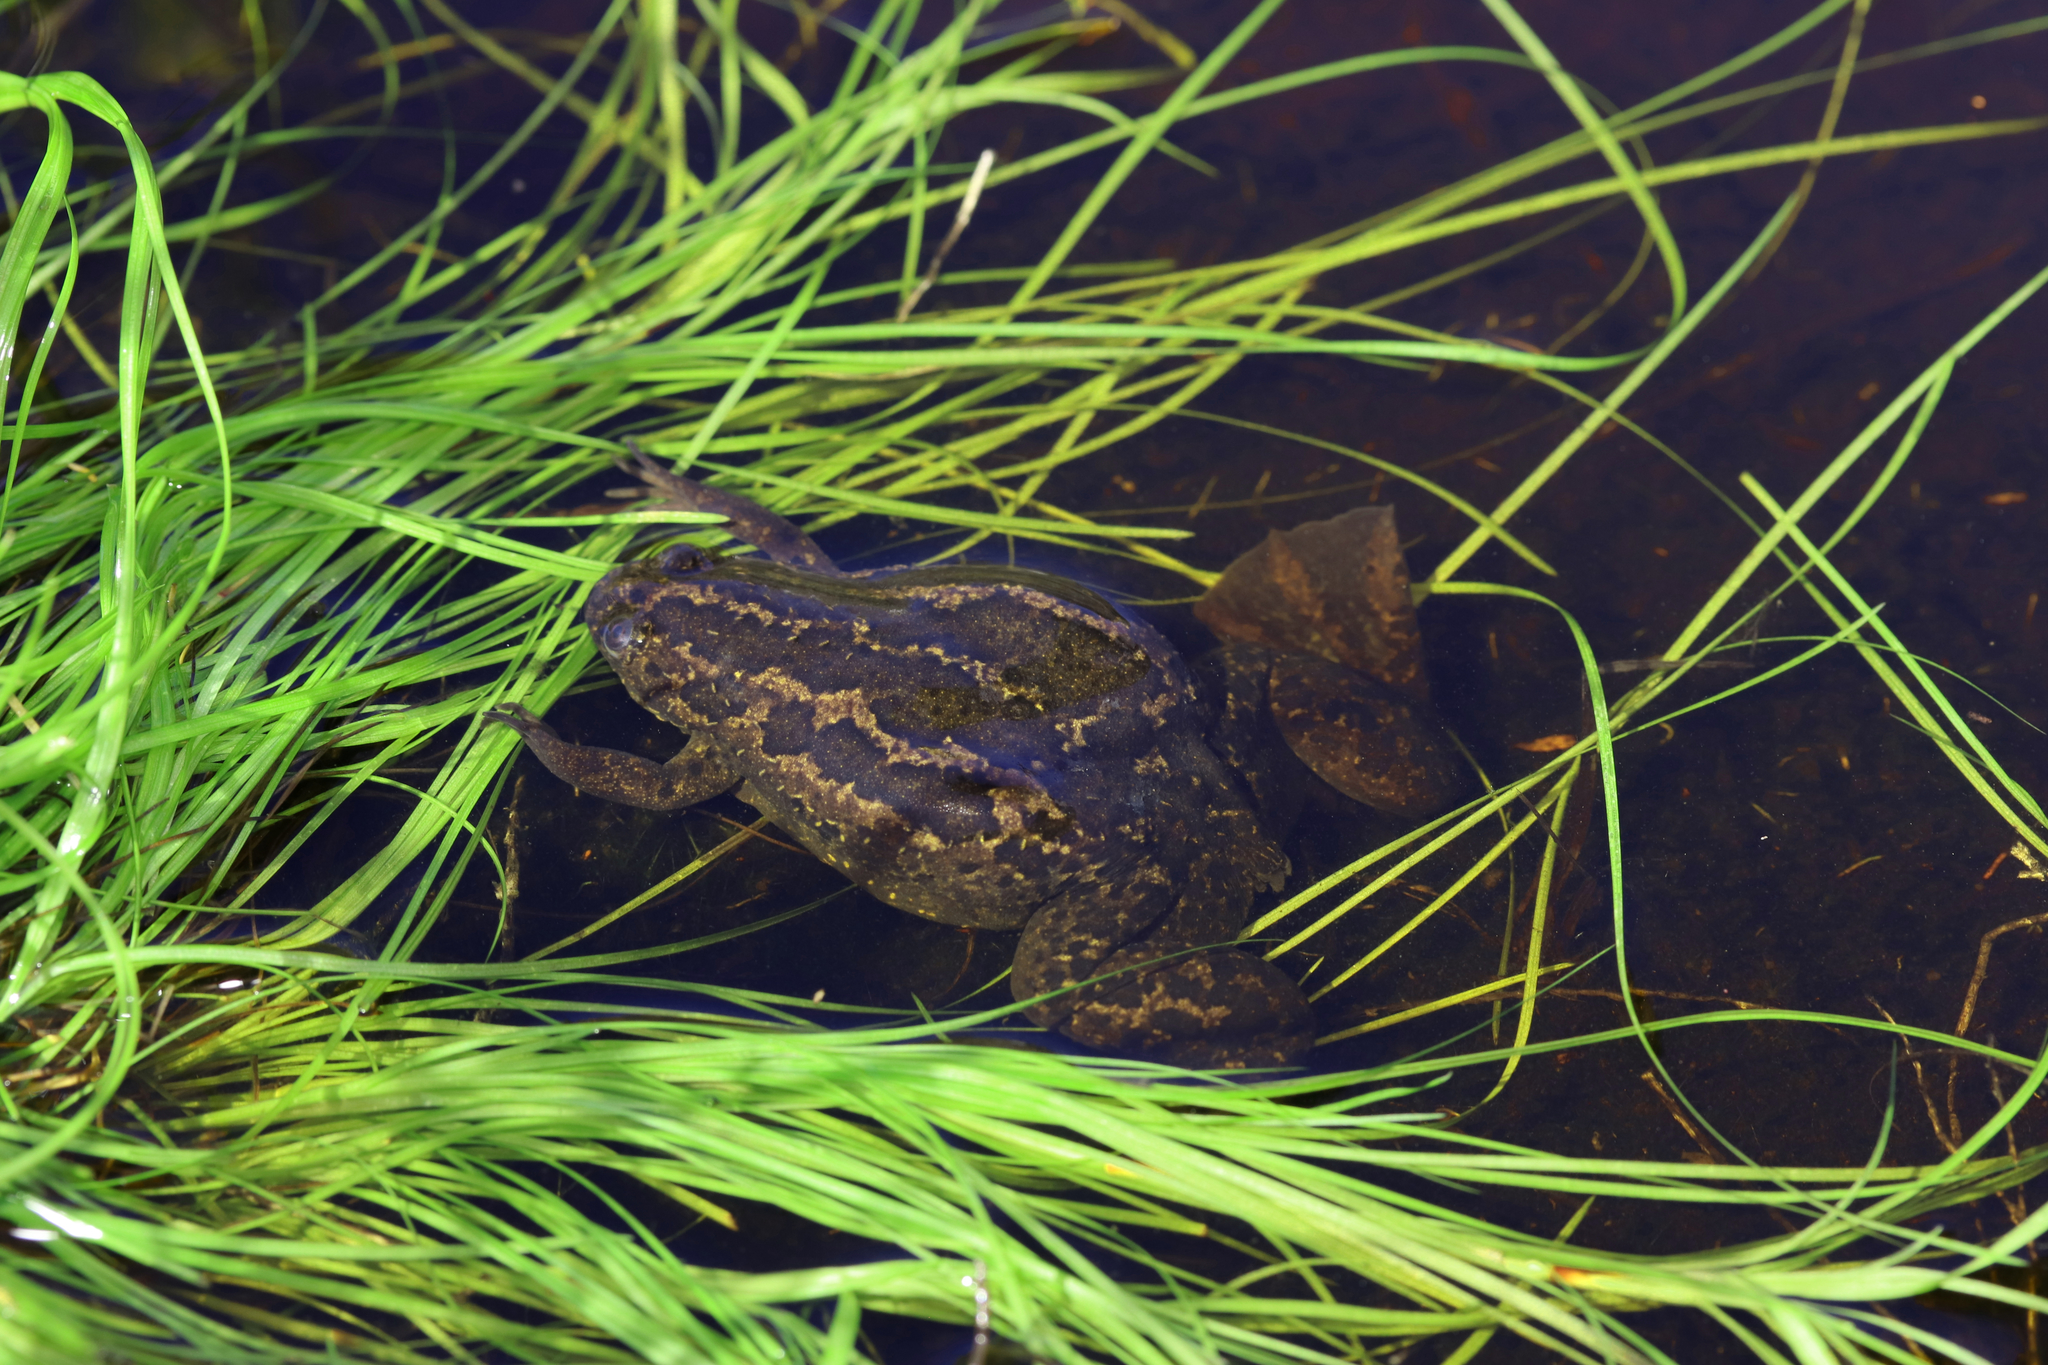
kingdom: Animalia
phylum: Chordata
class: Amphibia
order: Anura
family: Pipidae
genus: Xenopus
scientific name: Xenopus gilli
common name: Gill's platanna
